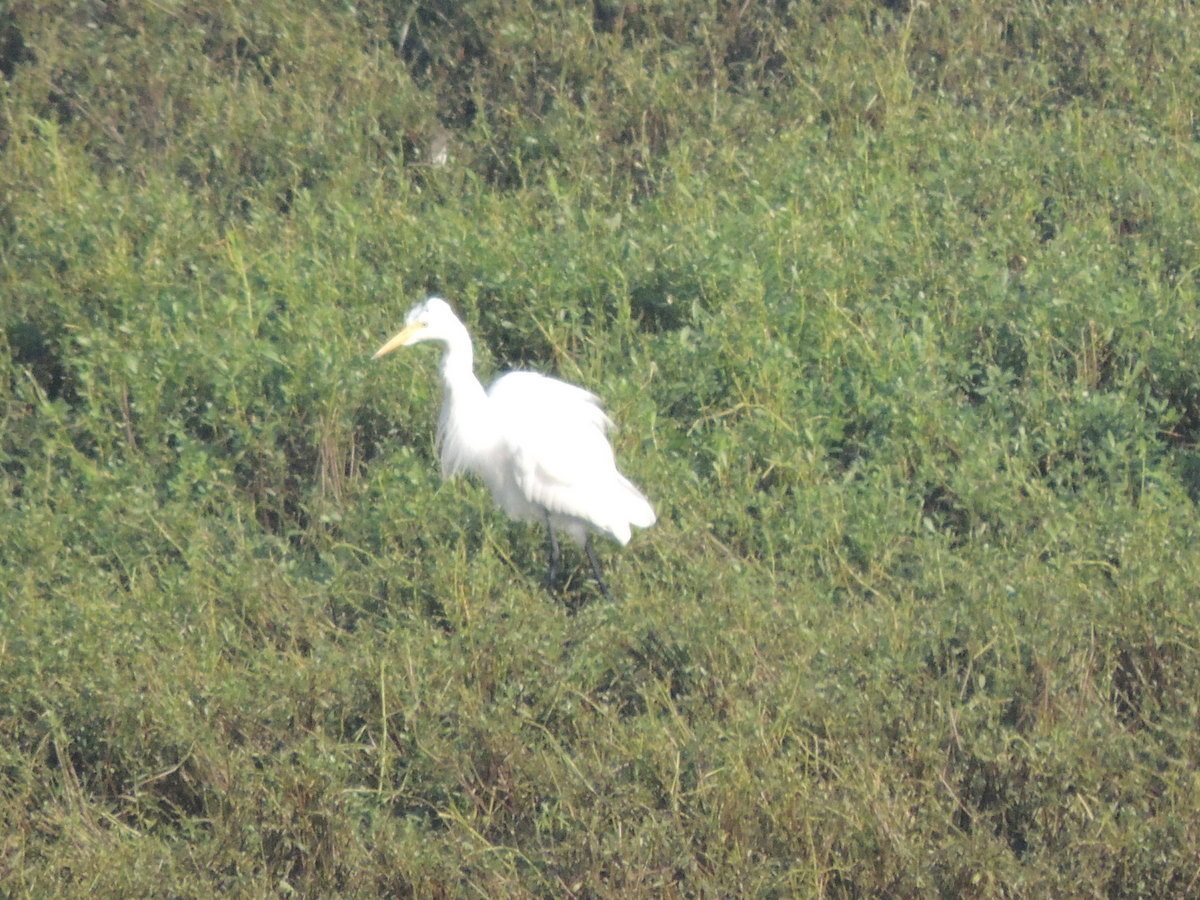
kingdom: Animalia
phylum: Chordata
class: Aves
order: Pelecaniformes
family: Ardeidae
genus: Ardea
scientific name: Ardea alba
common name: Great egret
